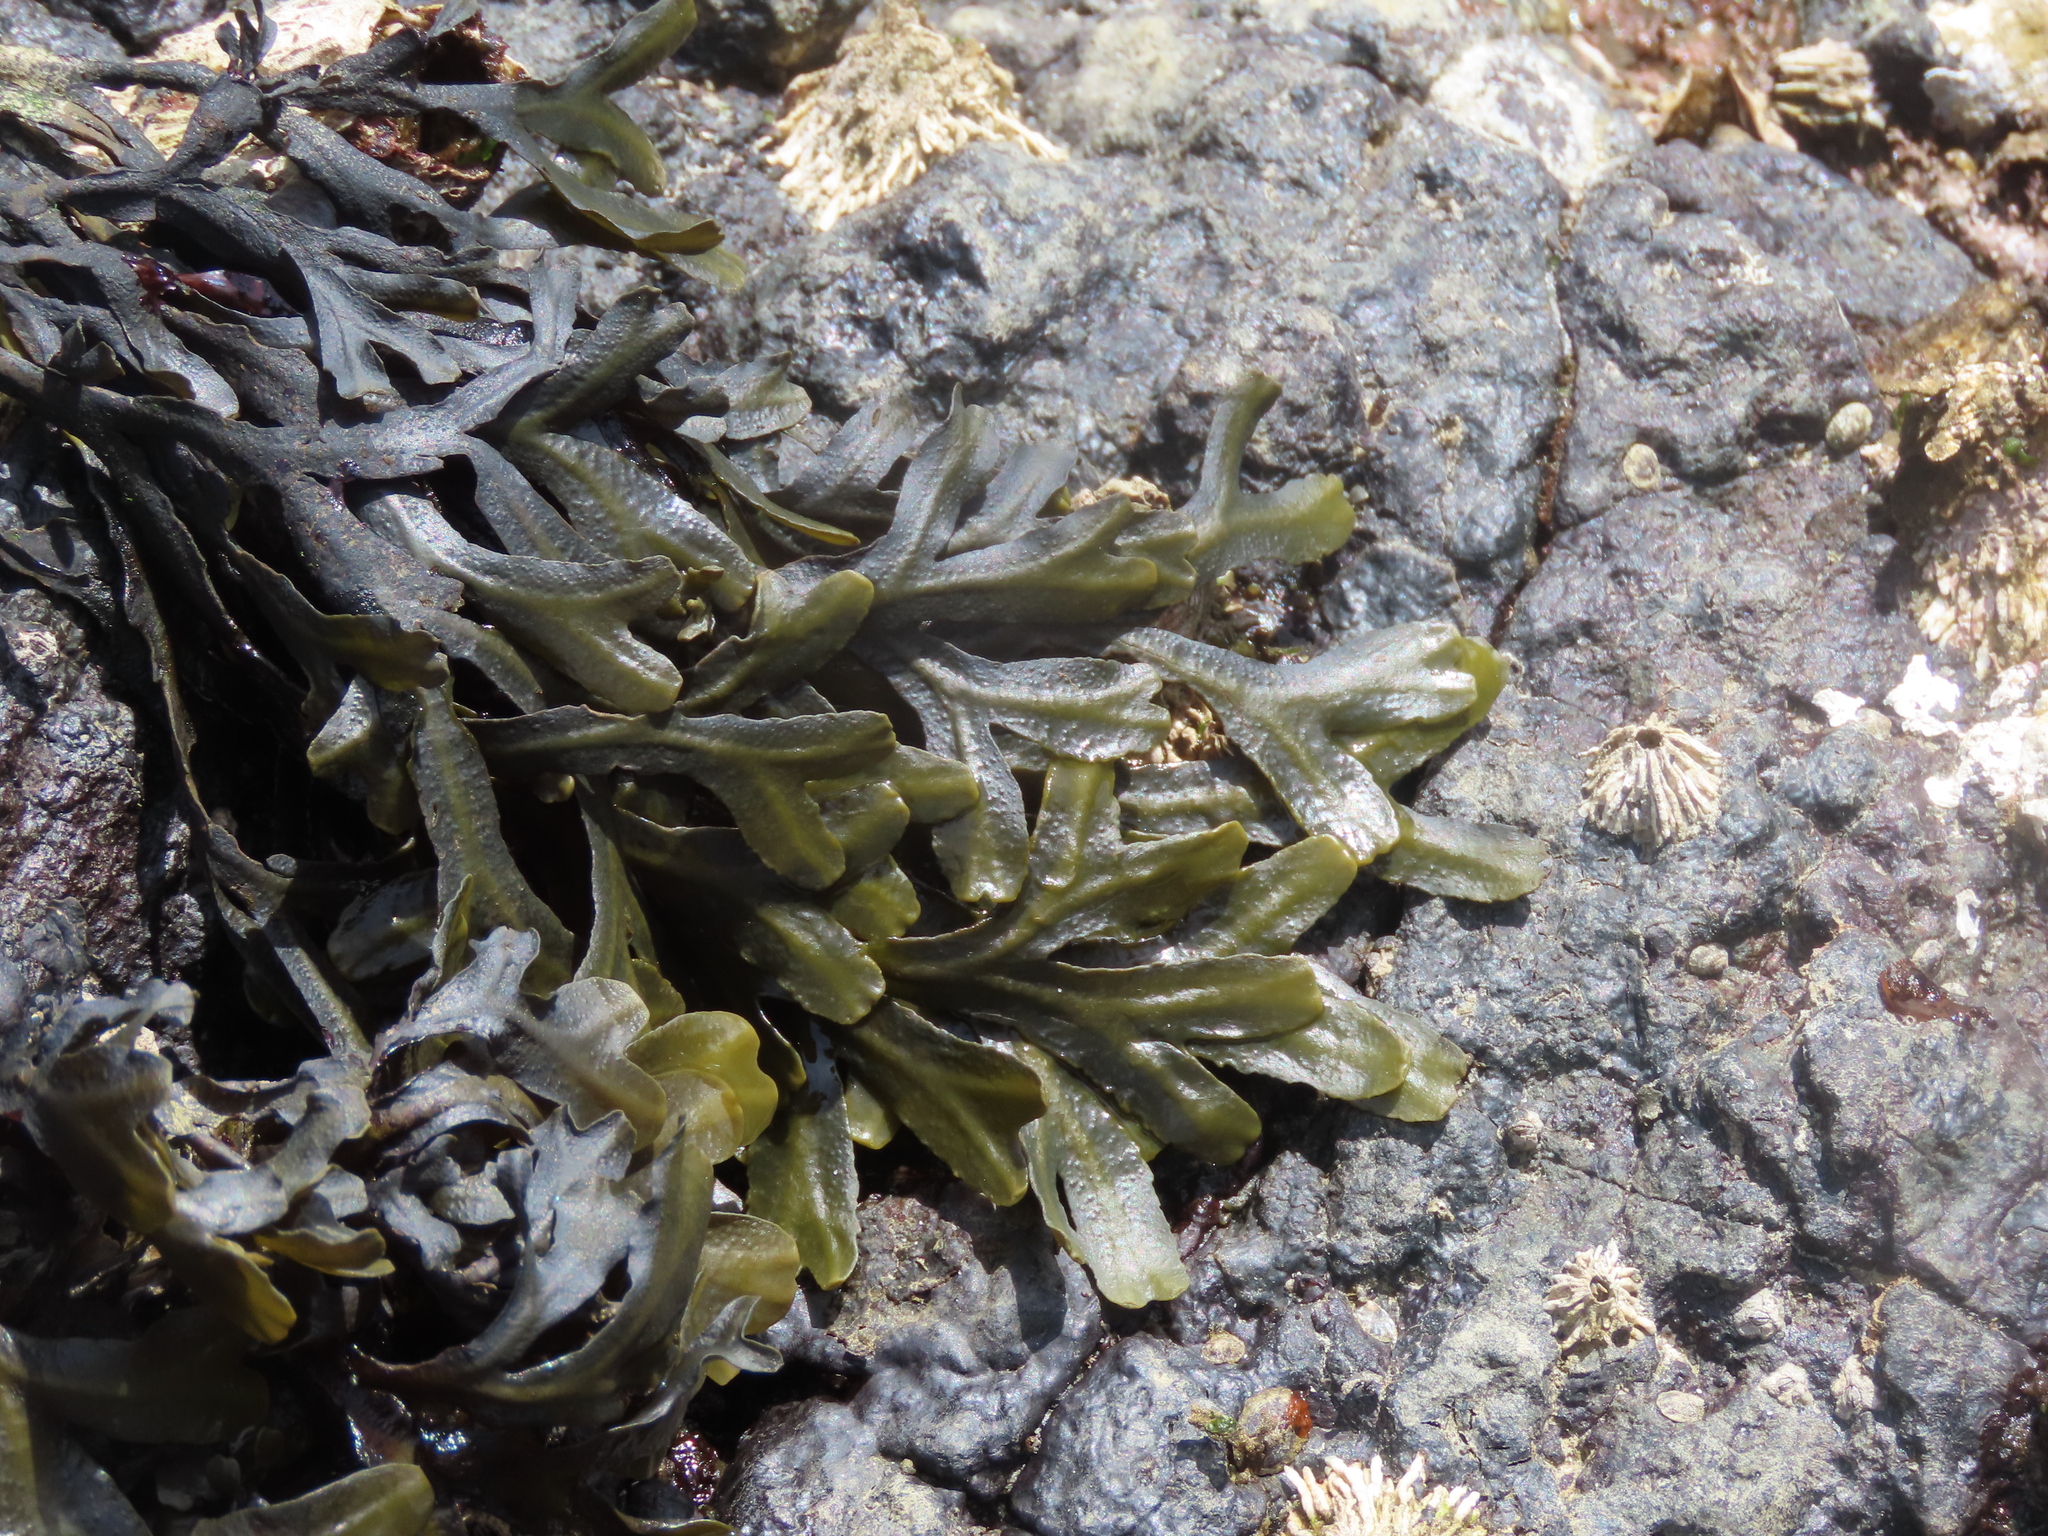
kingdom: Chromista
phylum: Ochrophyta
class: Phaeophyceae
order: Fucales
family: Fucaceae
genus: Fucus
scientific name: Fucus distichus
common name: Rockweed
